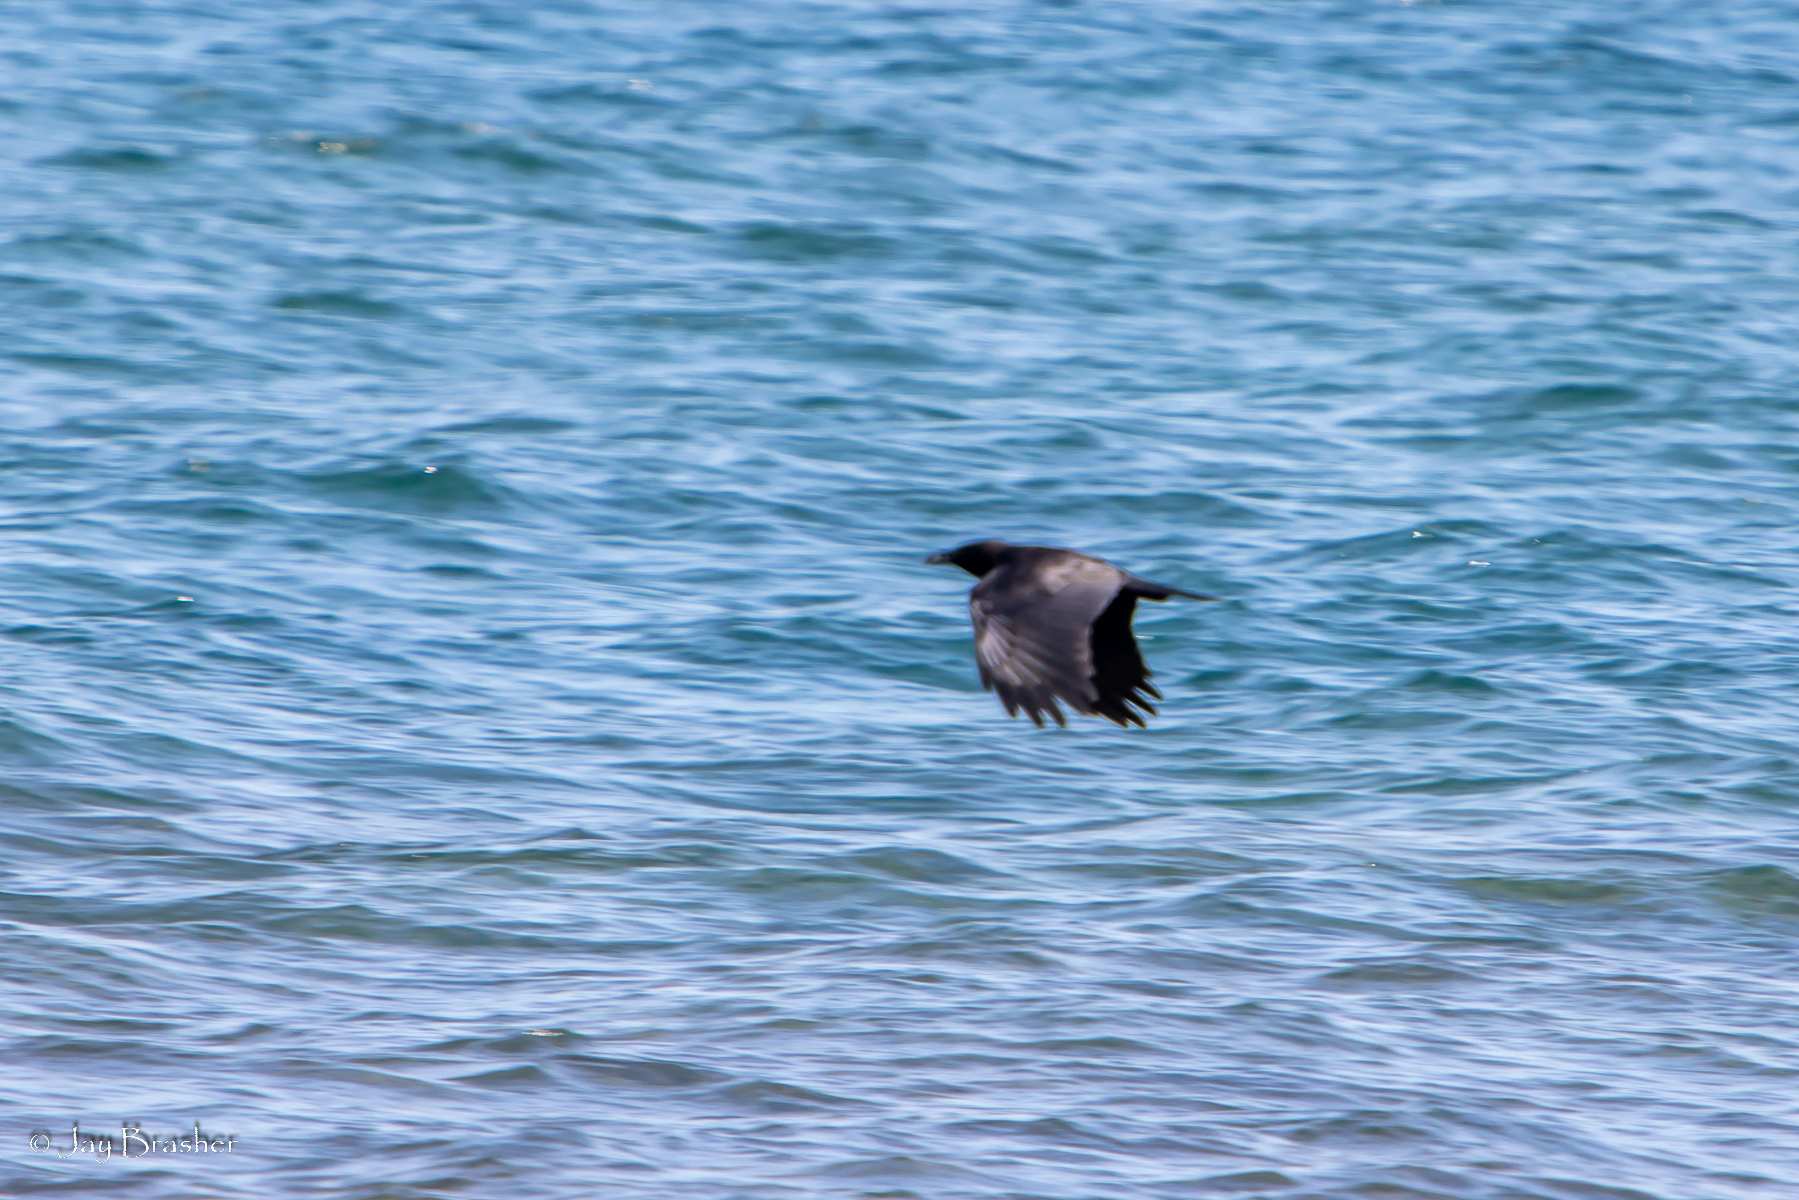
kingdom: Animalia
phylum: Chordata
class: Aves
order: Passeriformes
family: Corvidae
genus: Corvus
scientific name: Corvus brachyrhynchos
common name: American crow
